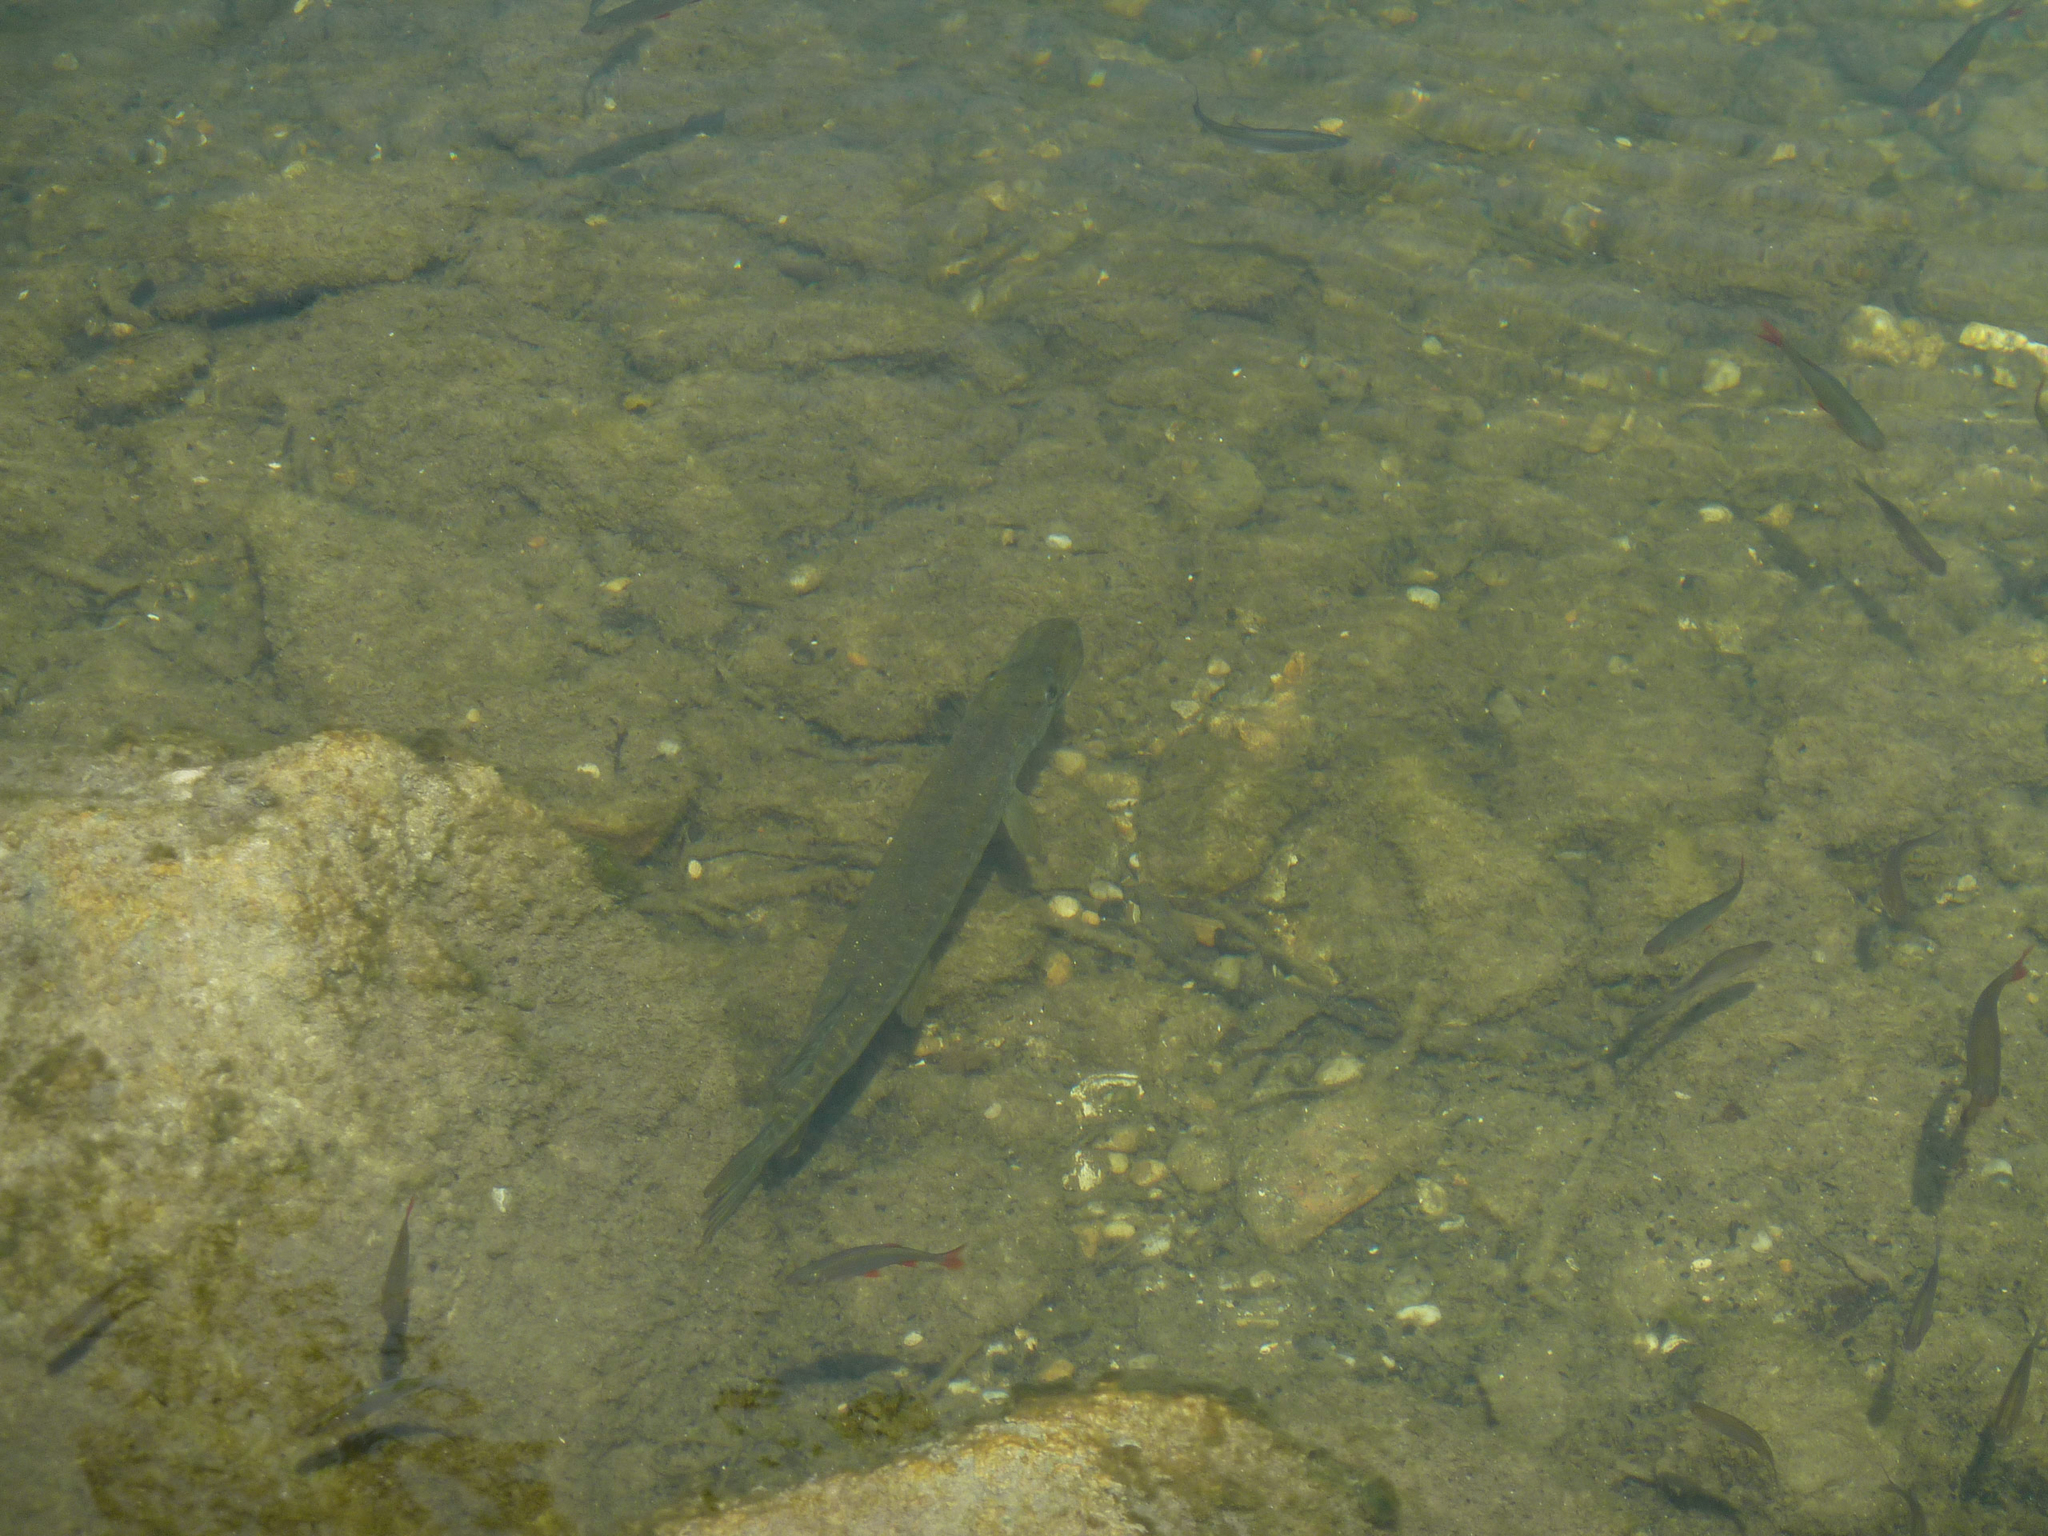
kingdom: Animalia
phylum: Chordata
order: Esociformes
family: Esocidae
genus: Esox
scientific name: Esox lucius
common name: Northern pike
